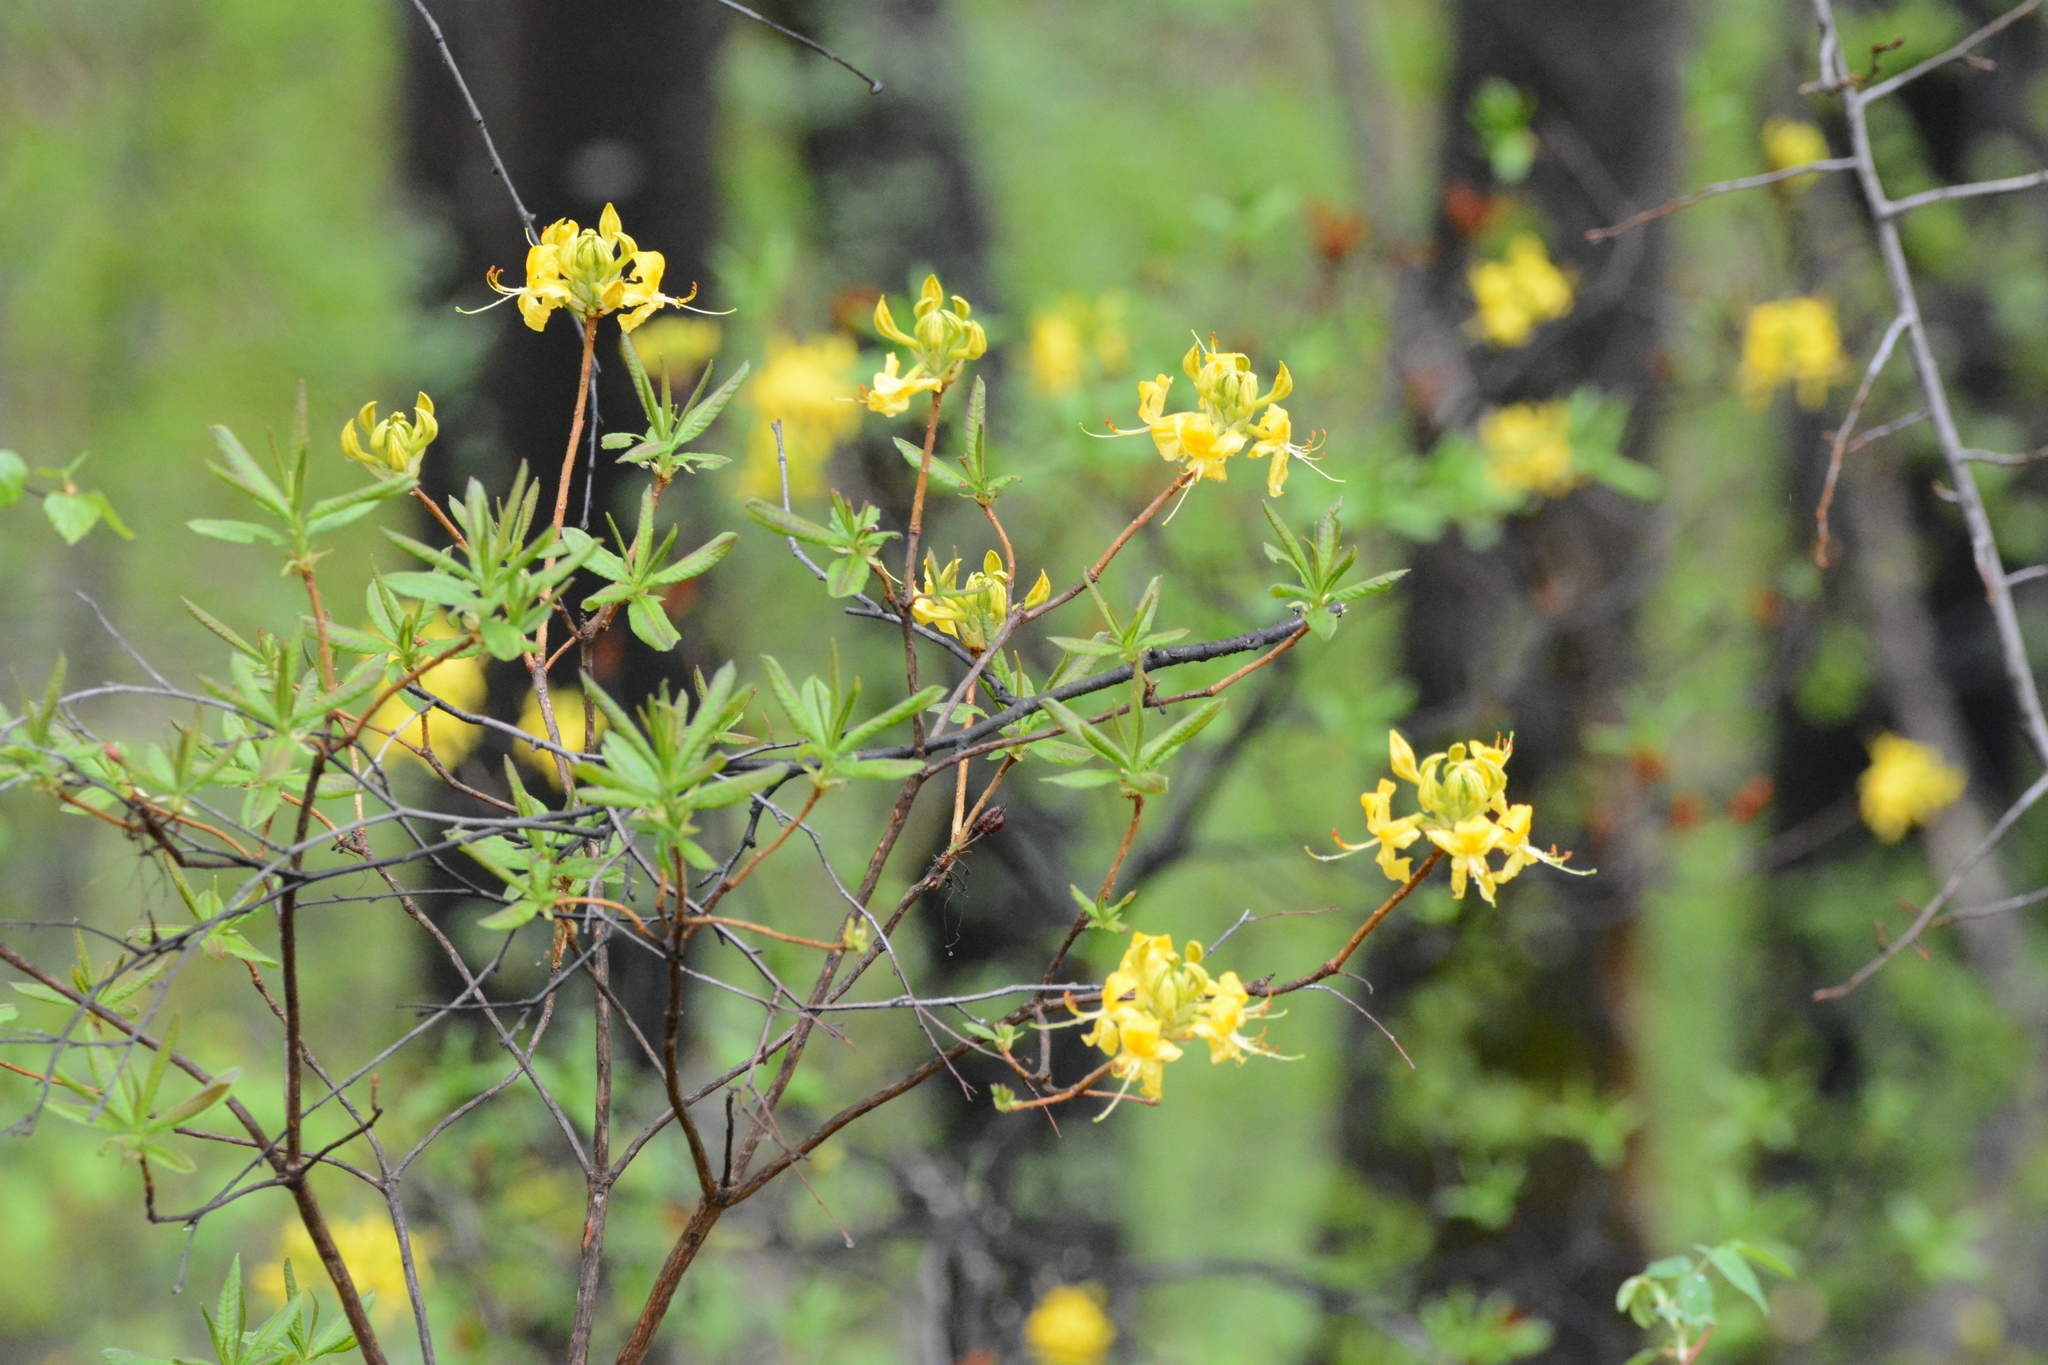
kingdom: Plantae
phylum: Tracheophyta
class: Magnoliopsida
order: Ericales
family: Ericaceae
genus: Rhododendron
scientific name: Rhododendron luteum
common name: Yellow azalea
